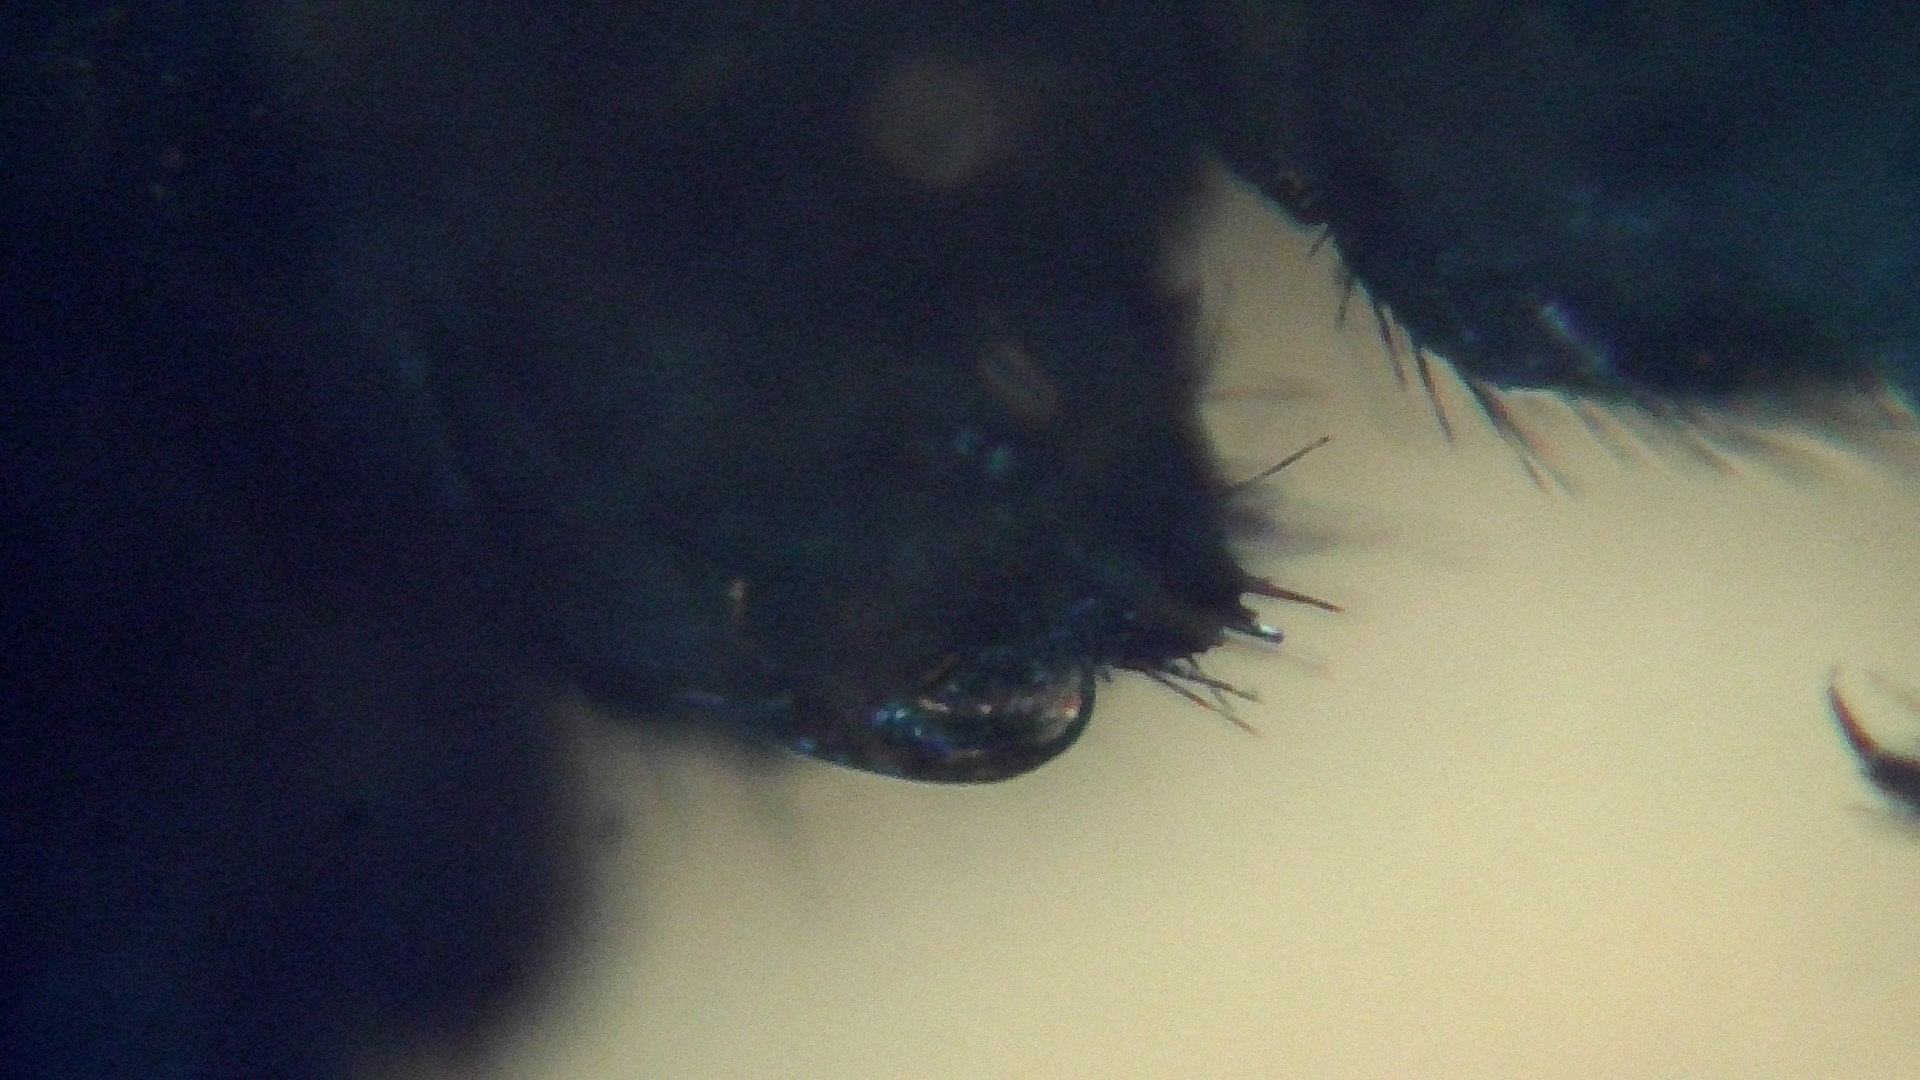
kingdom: Animalia
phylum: Arthropoda
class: Diplopoda
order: Chordeumatida
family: Chordeumatidae
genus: Chordeuma
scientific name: Chordeuma proximum
